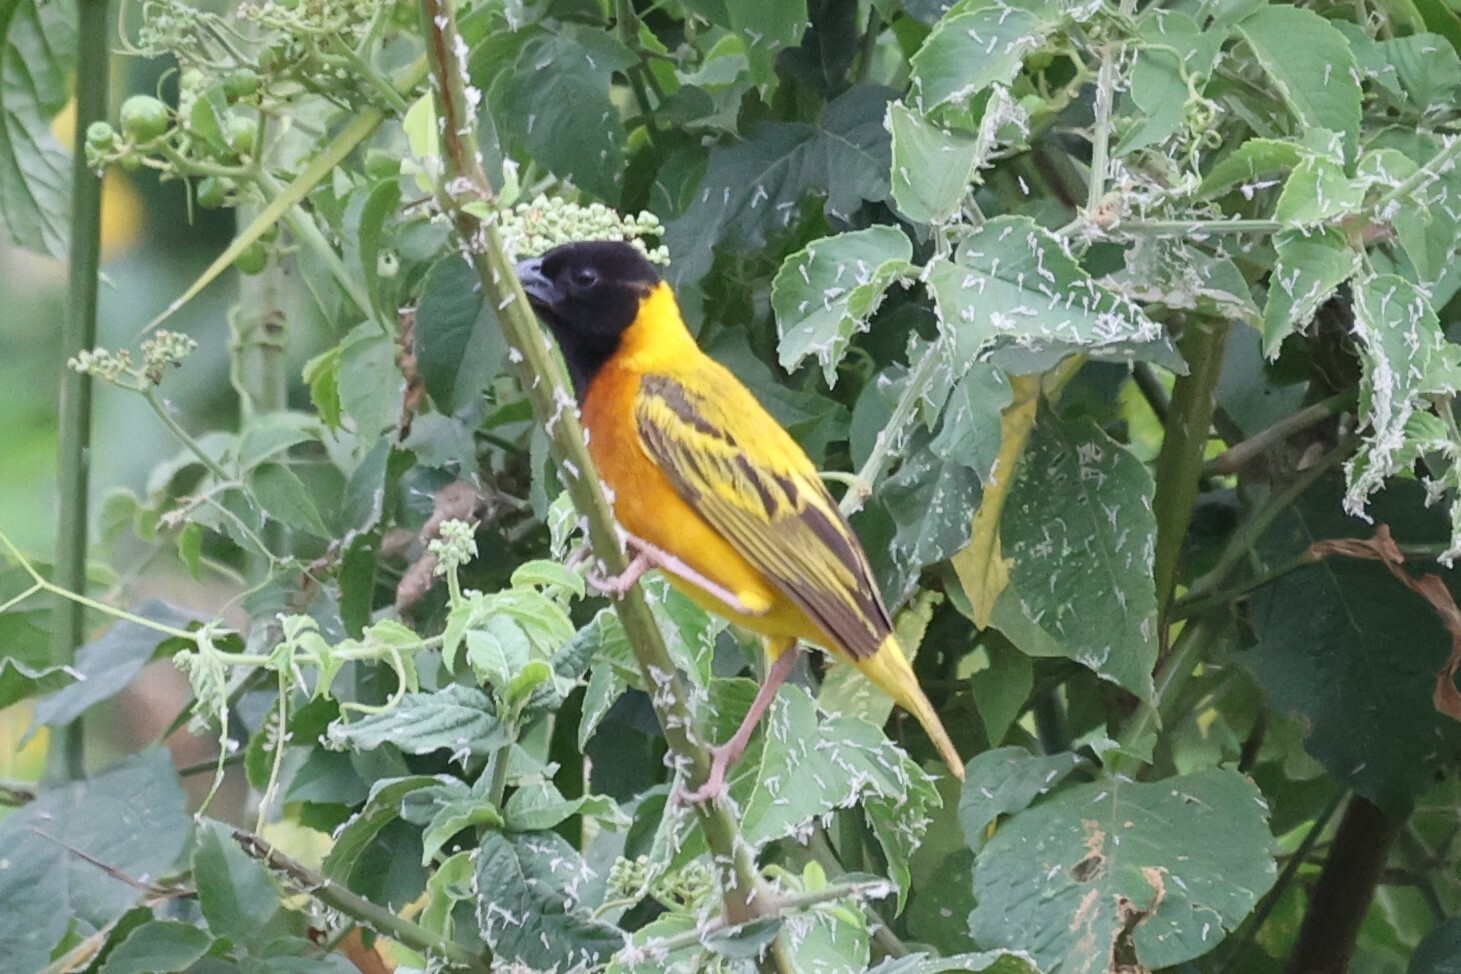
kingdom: Animalia
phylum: Chordata
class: Aves
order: Passeriformes
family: Ploceidae
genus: Ploceus
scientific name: Ploceus melanocephalus
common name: Black-headed weaver
